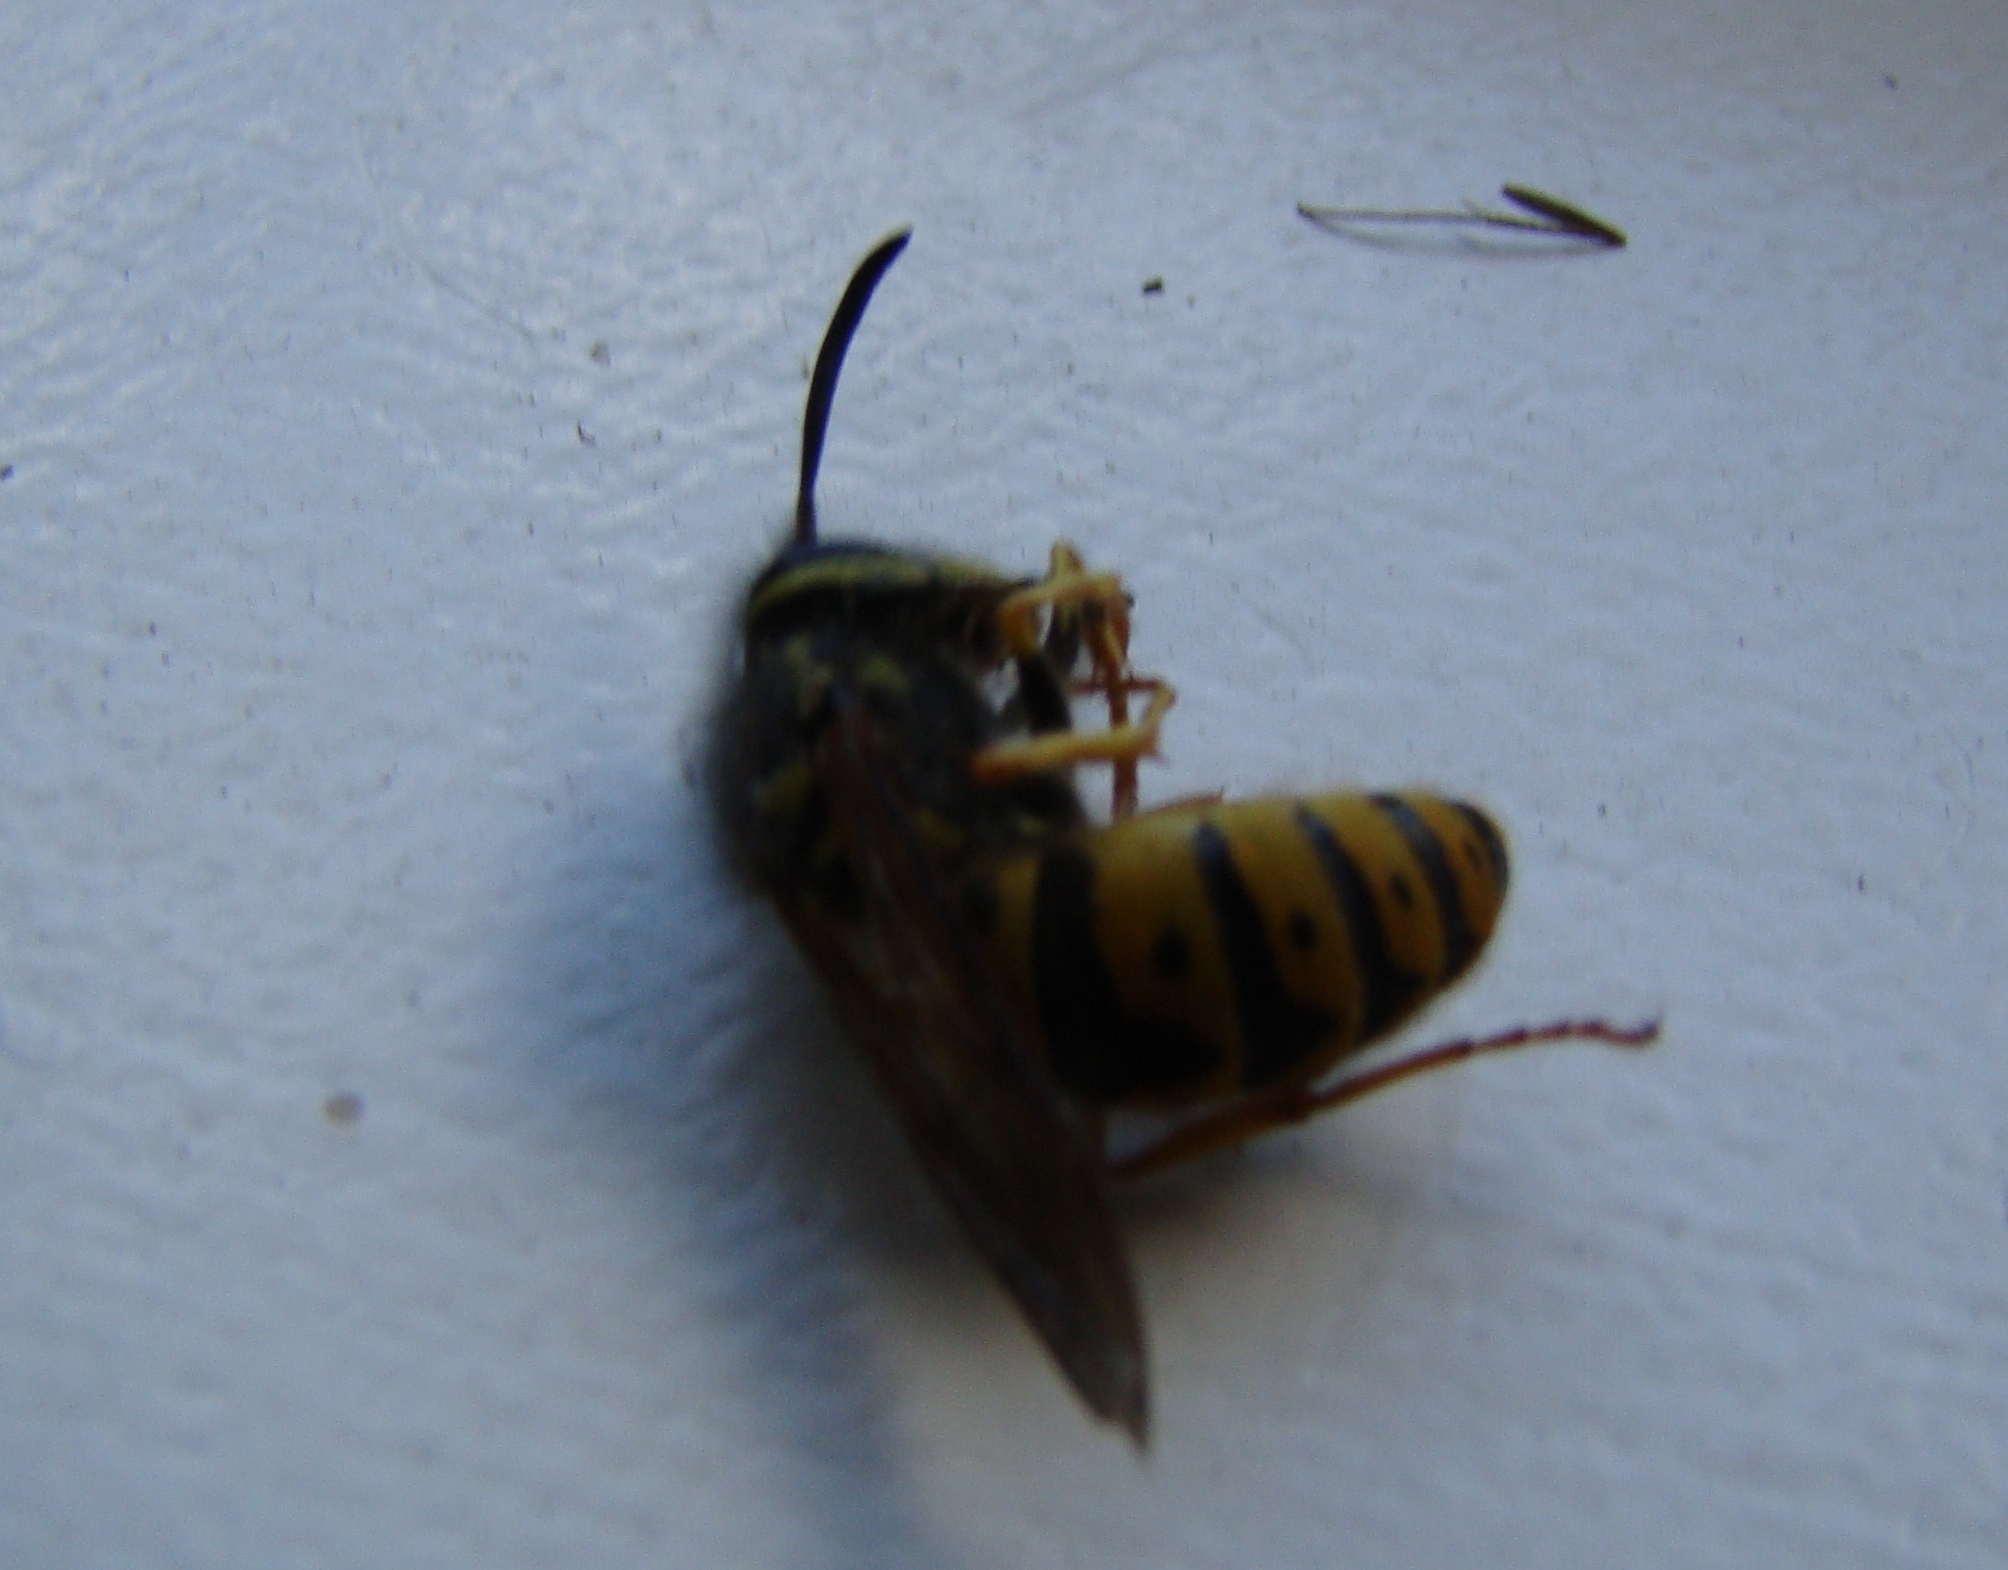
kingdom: Animalia
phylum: Arthropoda
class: Insecta
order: Hymenoptera
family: Vespidae
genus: Vespula
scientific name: Vespula germanica
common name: German wasp
